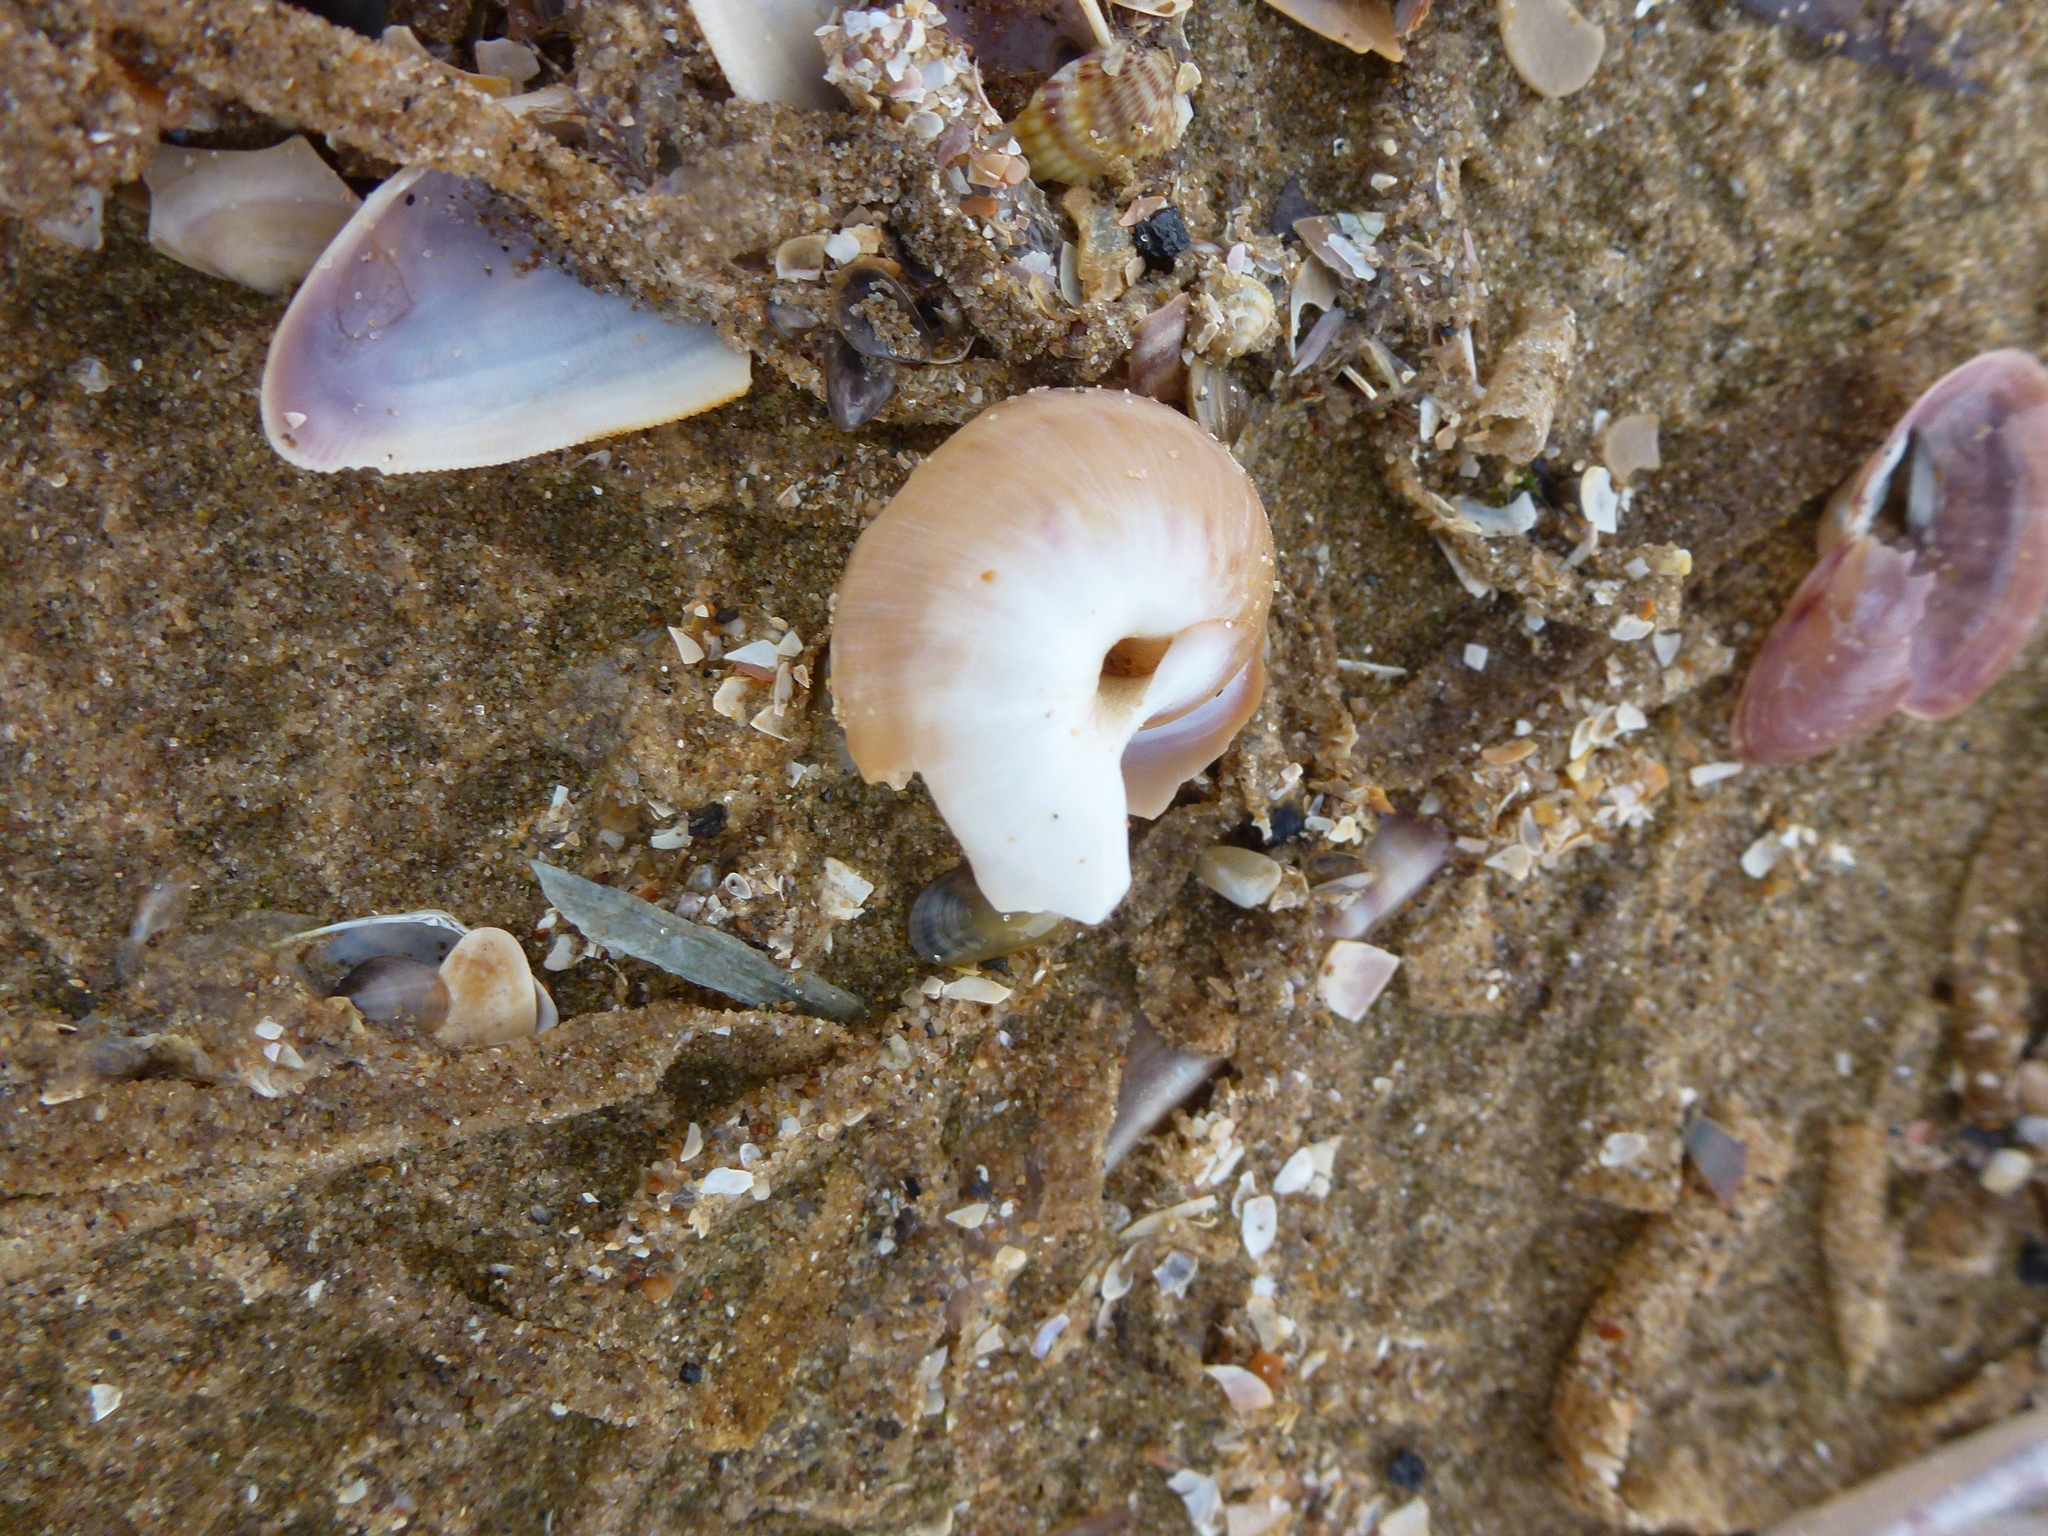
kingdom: Animalia
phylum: Mollusca
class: Gastropoda
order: Littorinimorpha
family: Naticidae
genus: Euspira
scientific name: Euspira catena
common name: Necklace shell
